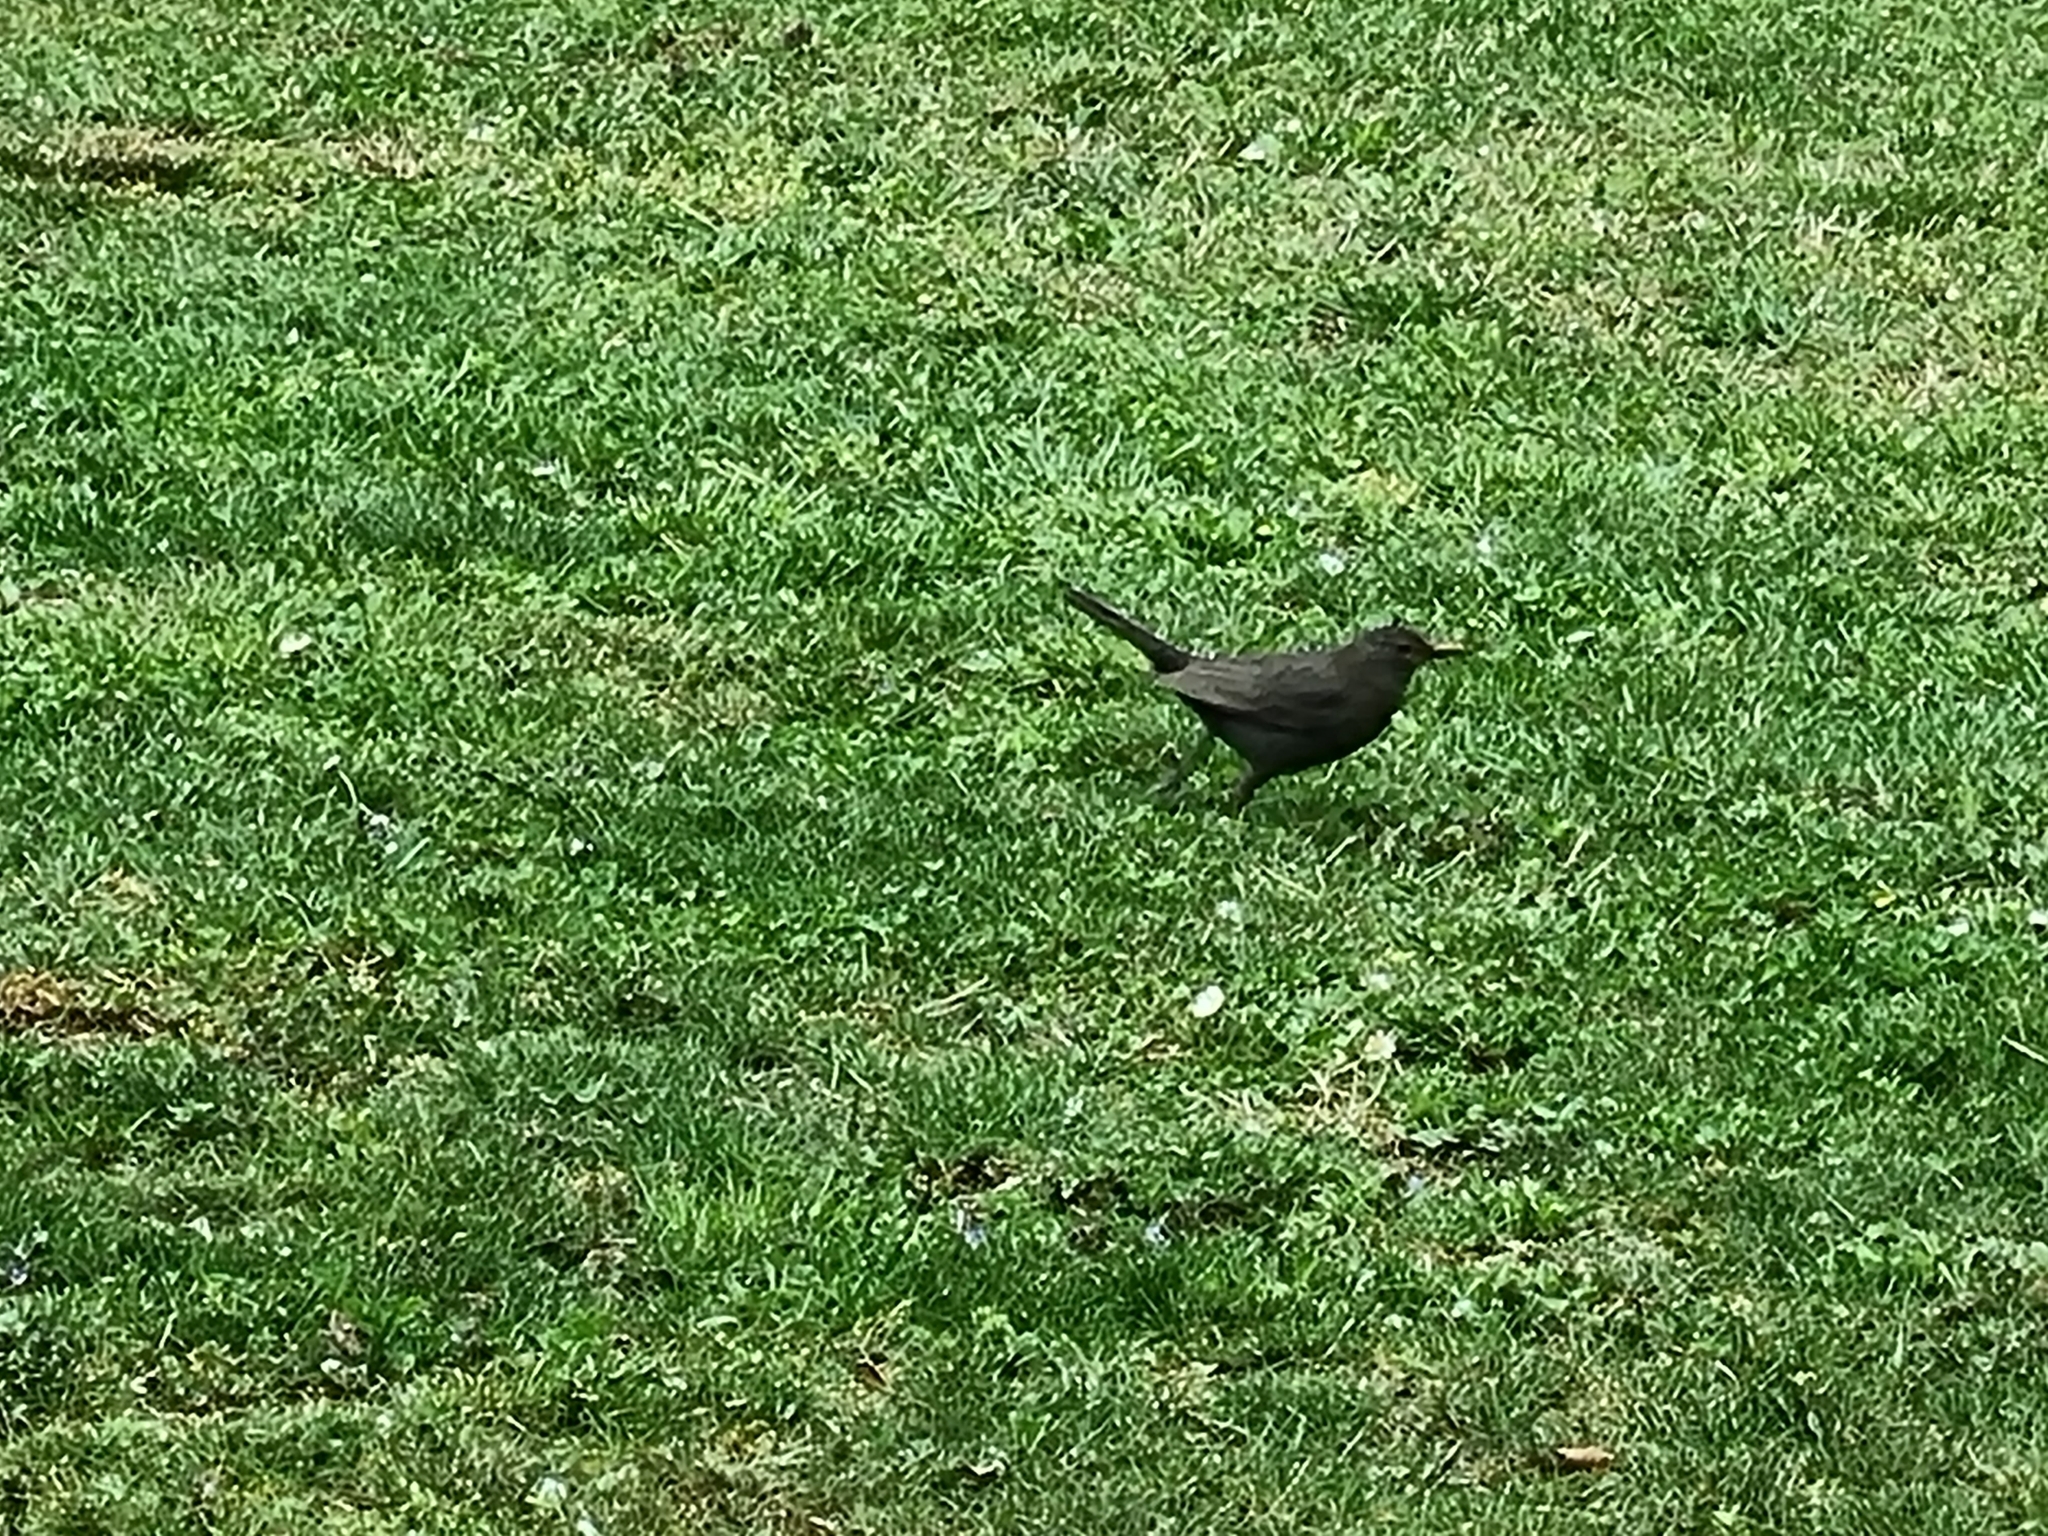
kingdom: Animalia
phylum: Chordata
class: Aves
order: Passeriformes
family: Turdidae
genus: Turdus
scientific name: Turdus merula
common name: Common blackbird
